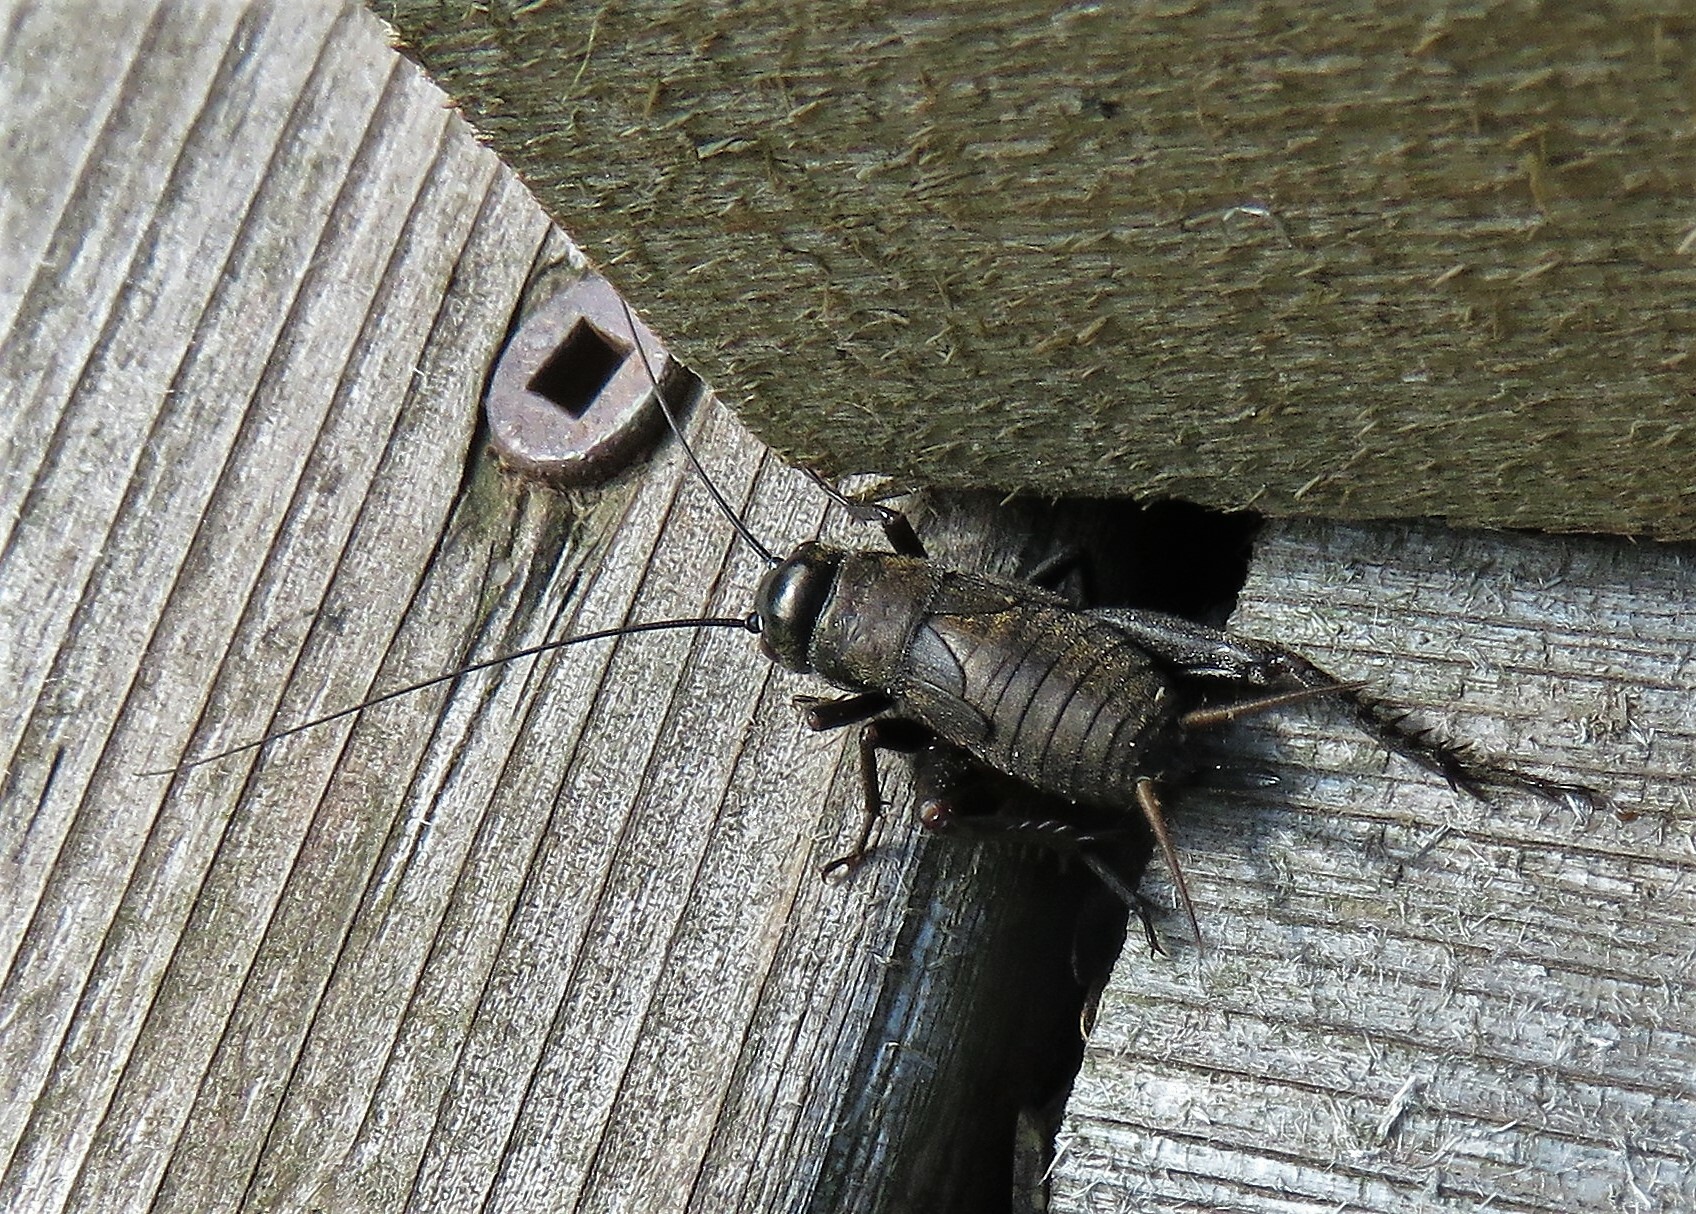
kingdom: Animalia
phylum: Arthropoda
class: Insecta
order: Orthoptera
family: Gryllidae
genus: Gryllus
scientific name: Gryllus pennsylvanicus
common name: Fall field cricket
